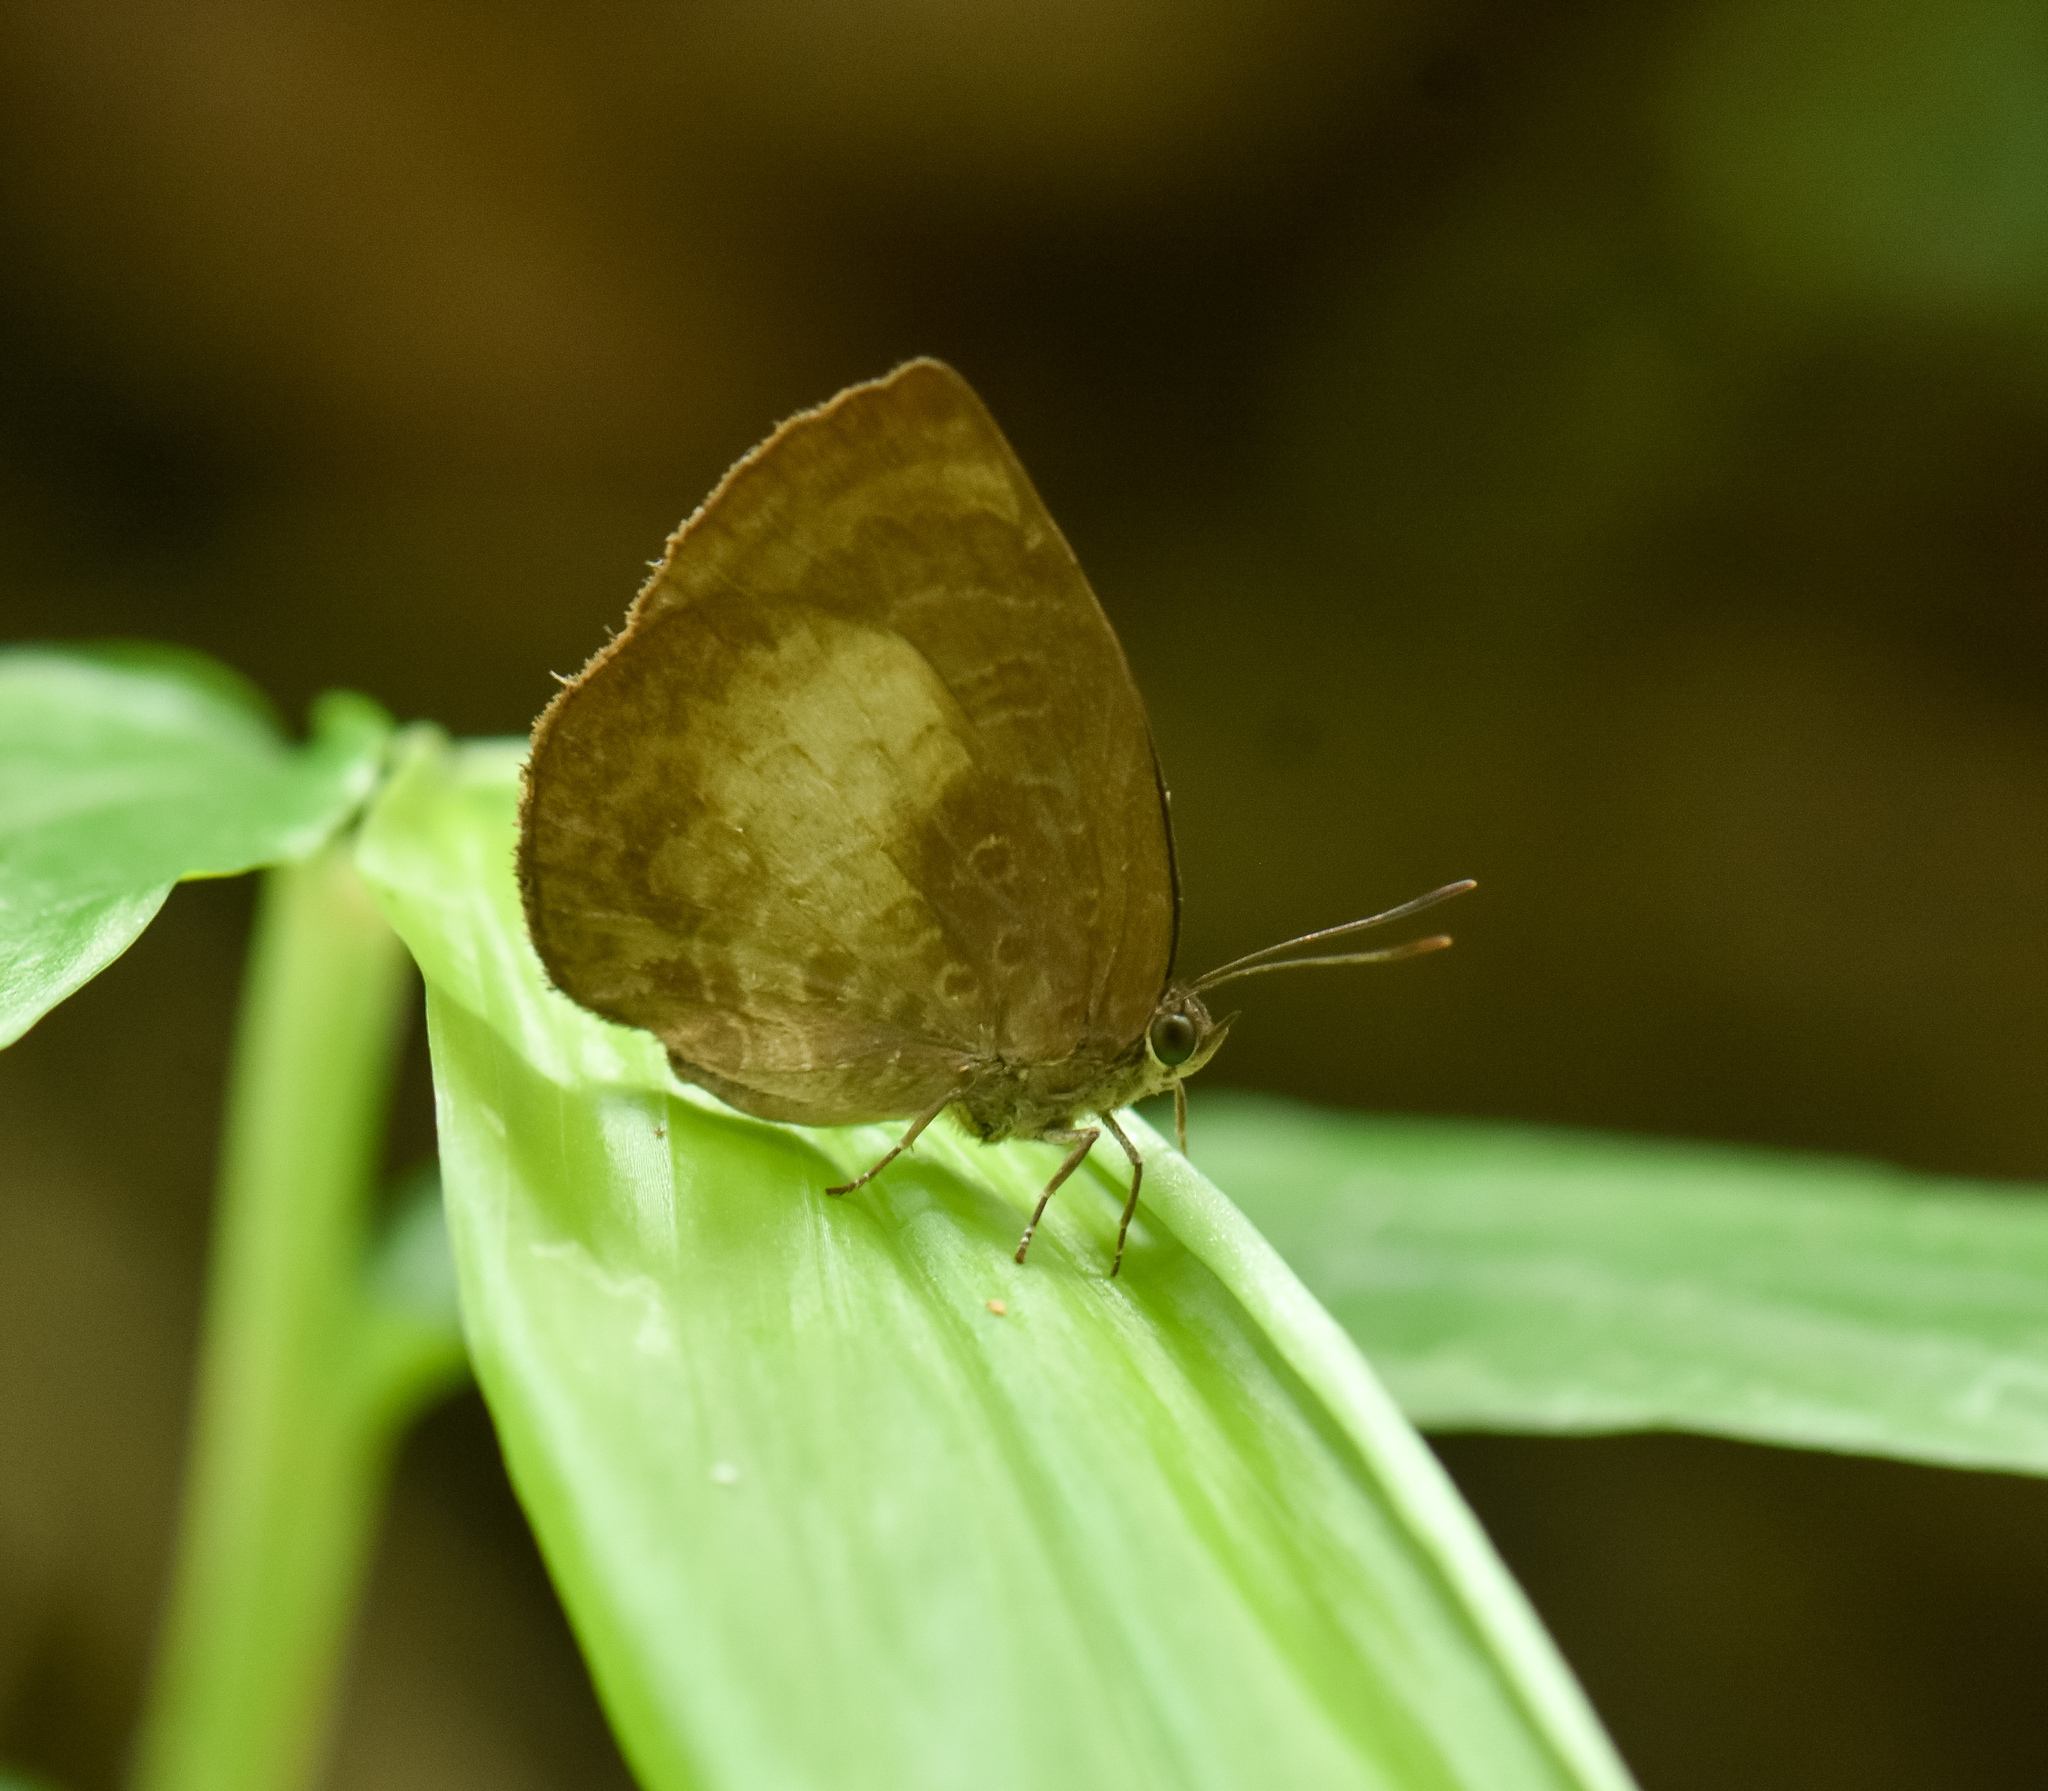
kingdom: Animalia
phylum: Arthropoda
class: Insecta
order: Lepidoptera
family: Lycaenidae
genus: Arhopala
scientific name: Arhopala perimuta
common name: Yellowdisc oakblue
